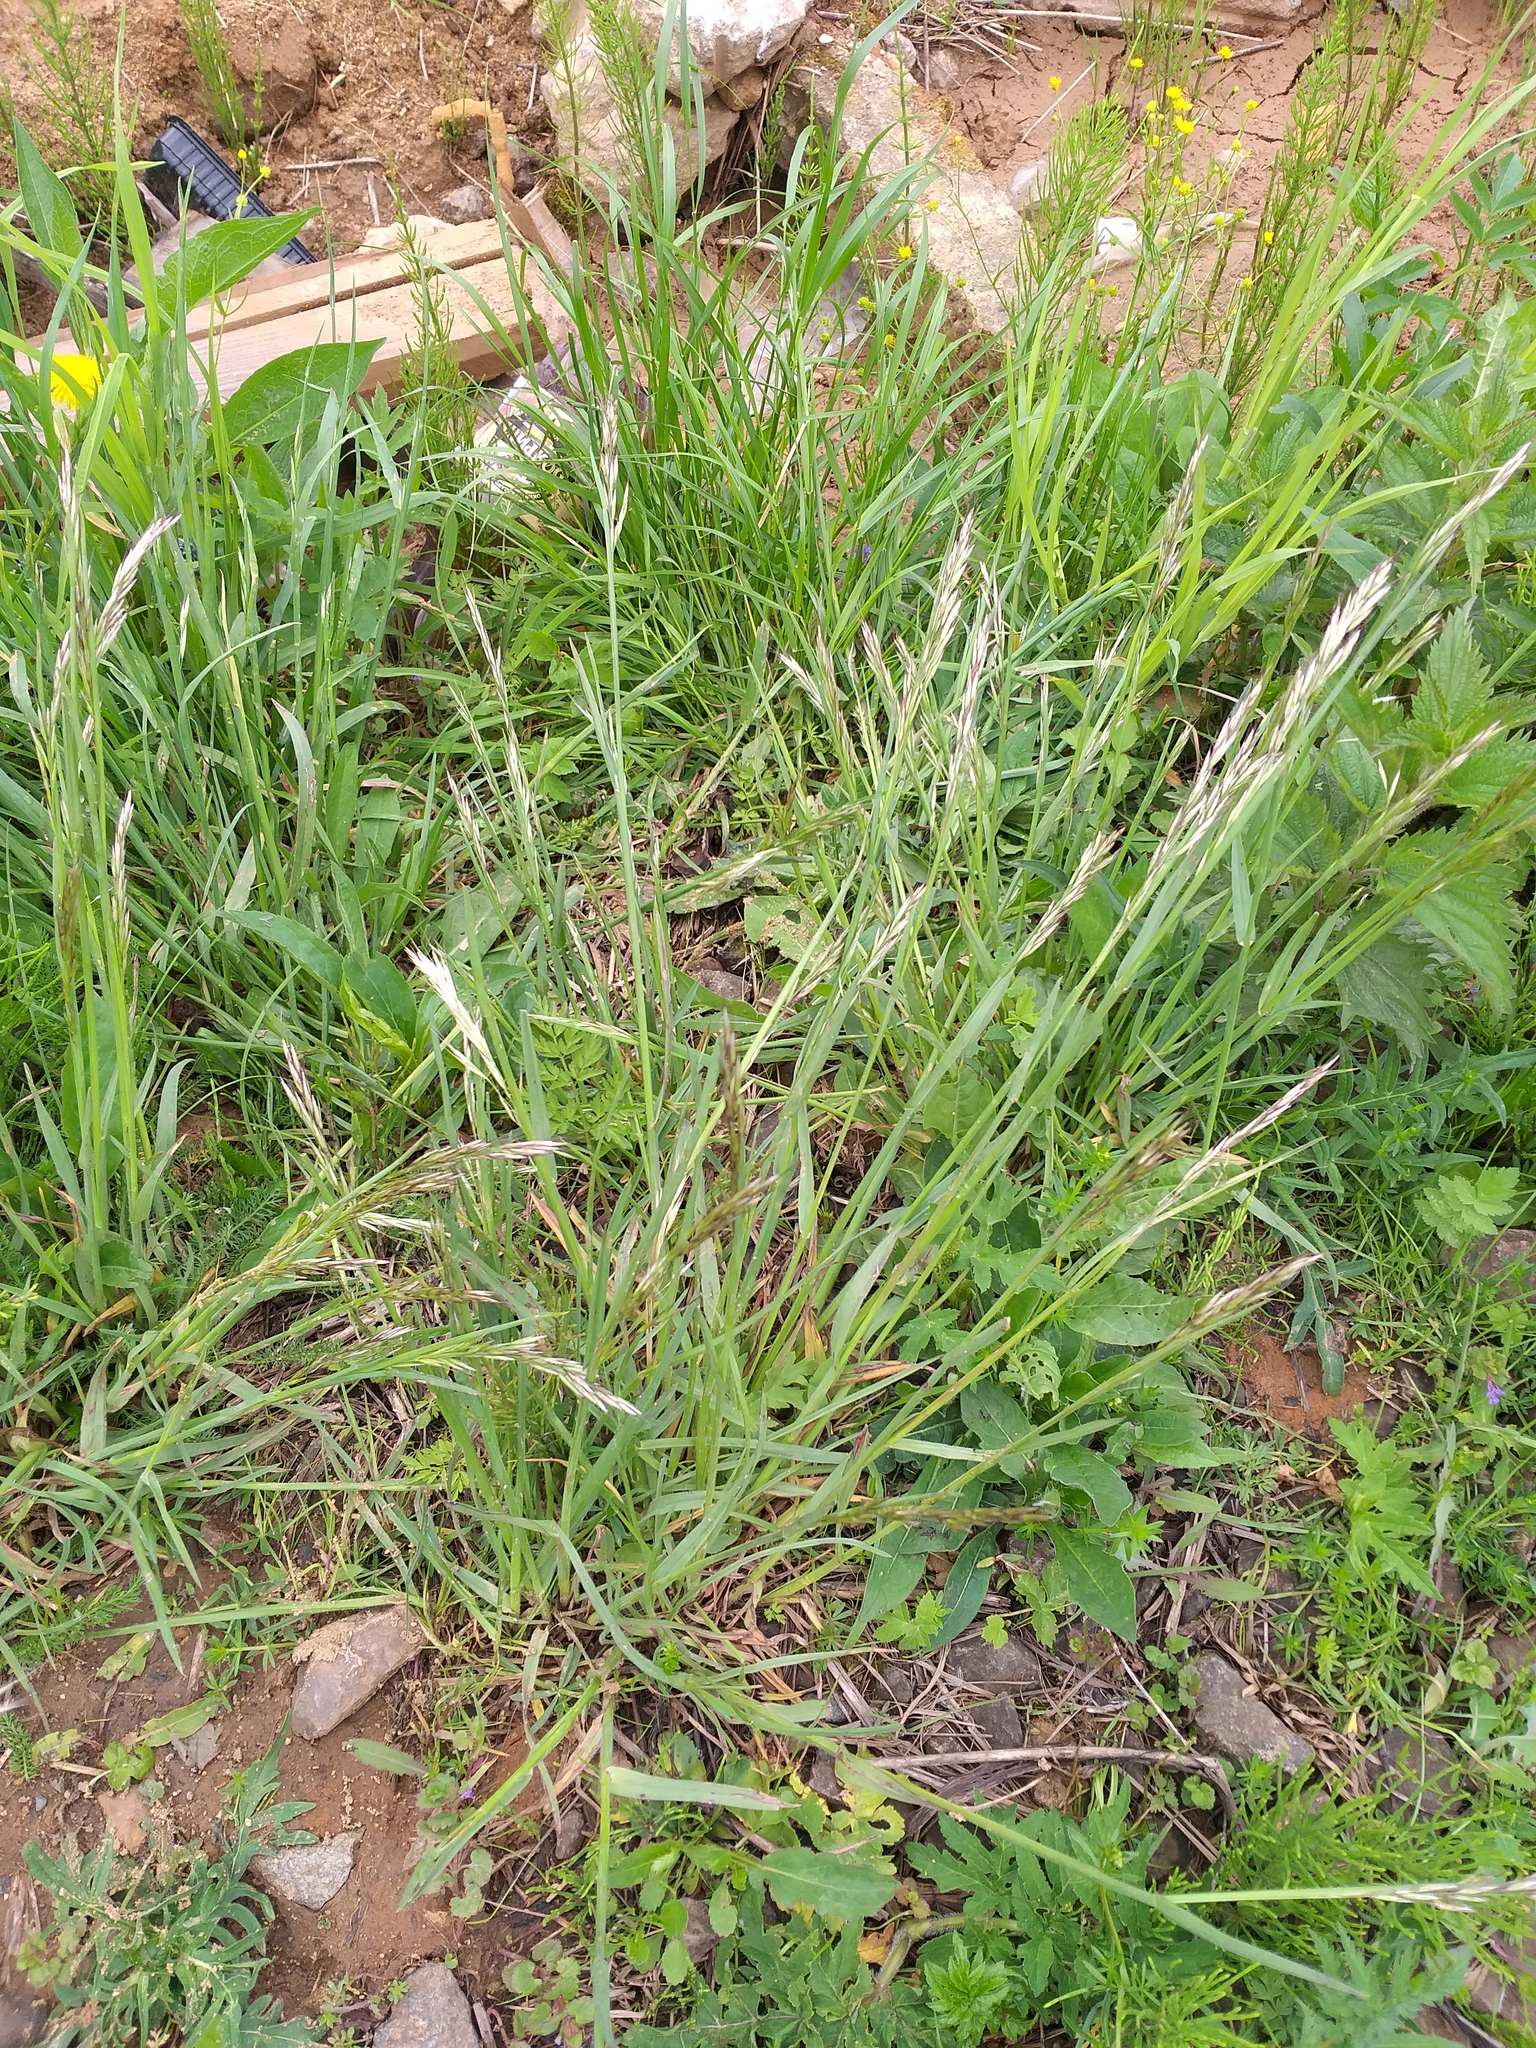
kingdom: Plantae
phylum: Tracheophyta
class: Liliopsida
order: Poales
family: Poaceae
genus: Avenula
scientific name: Avenula pubescens
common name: Downy alpine oatgrass
